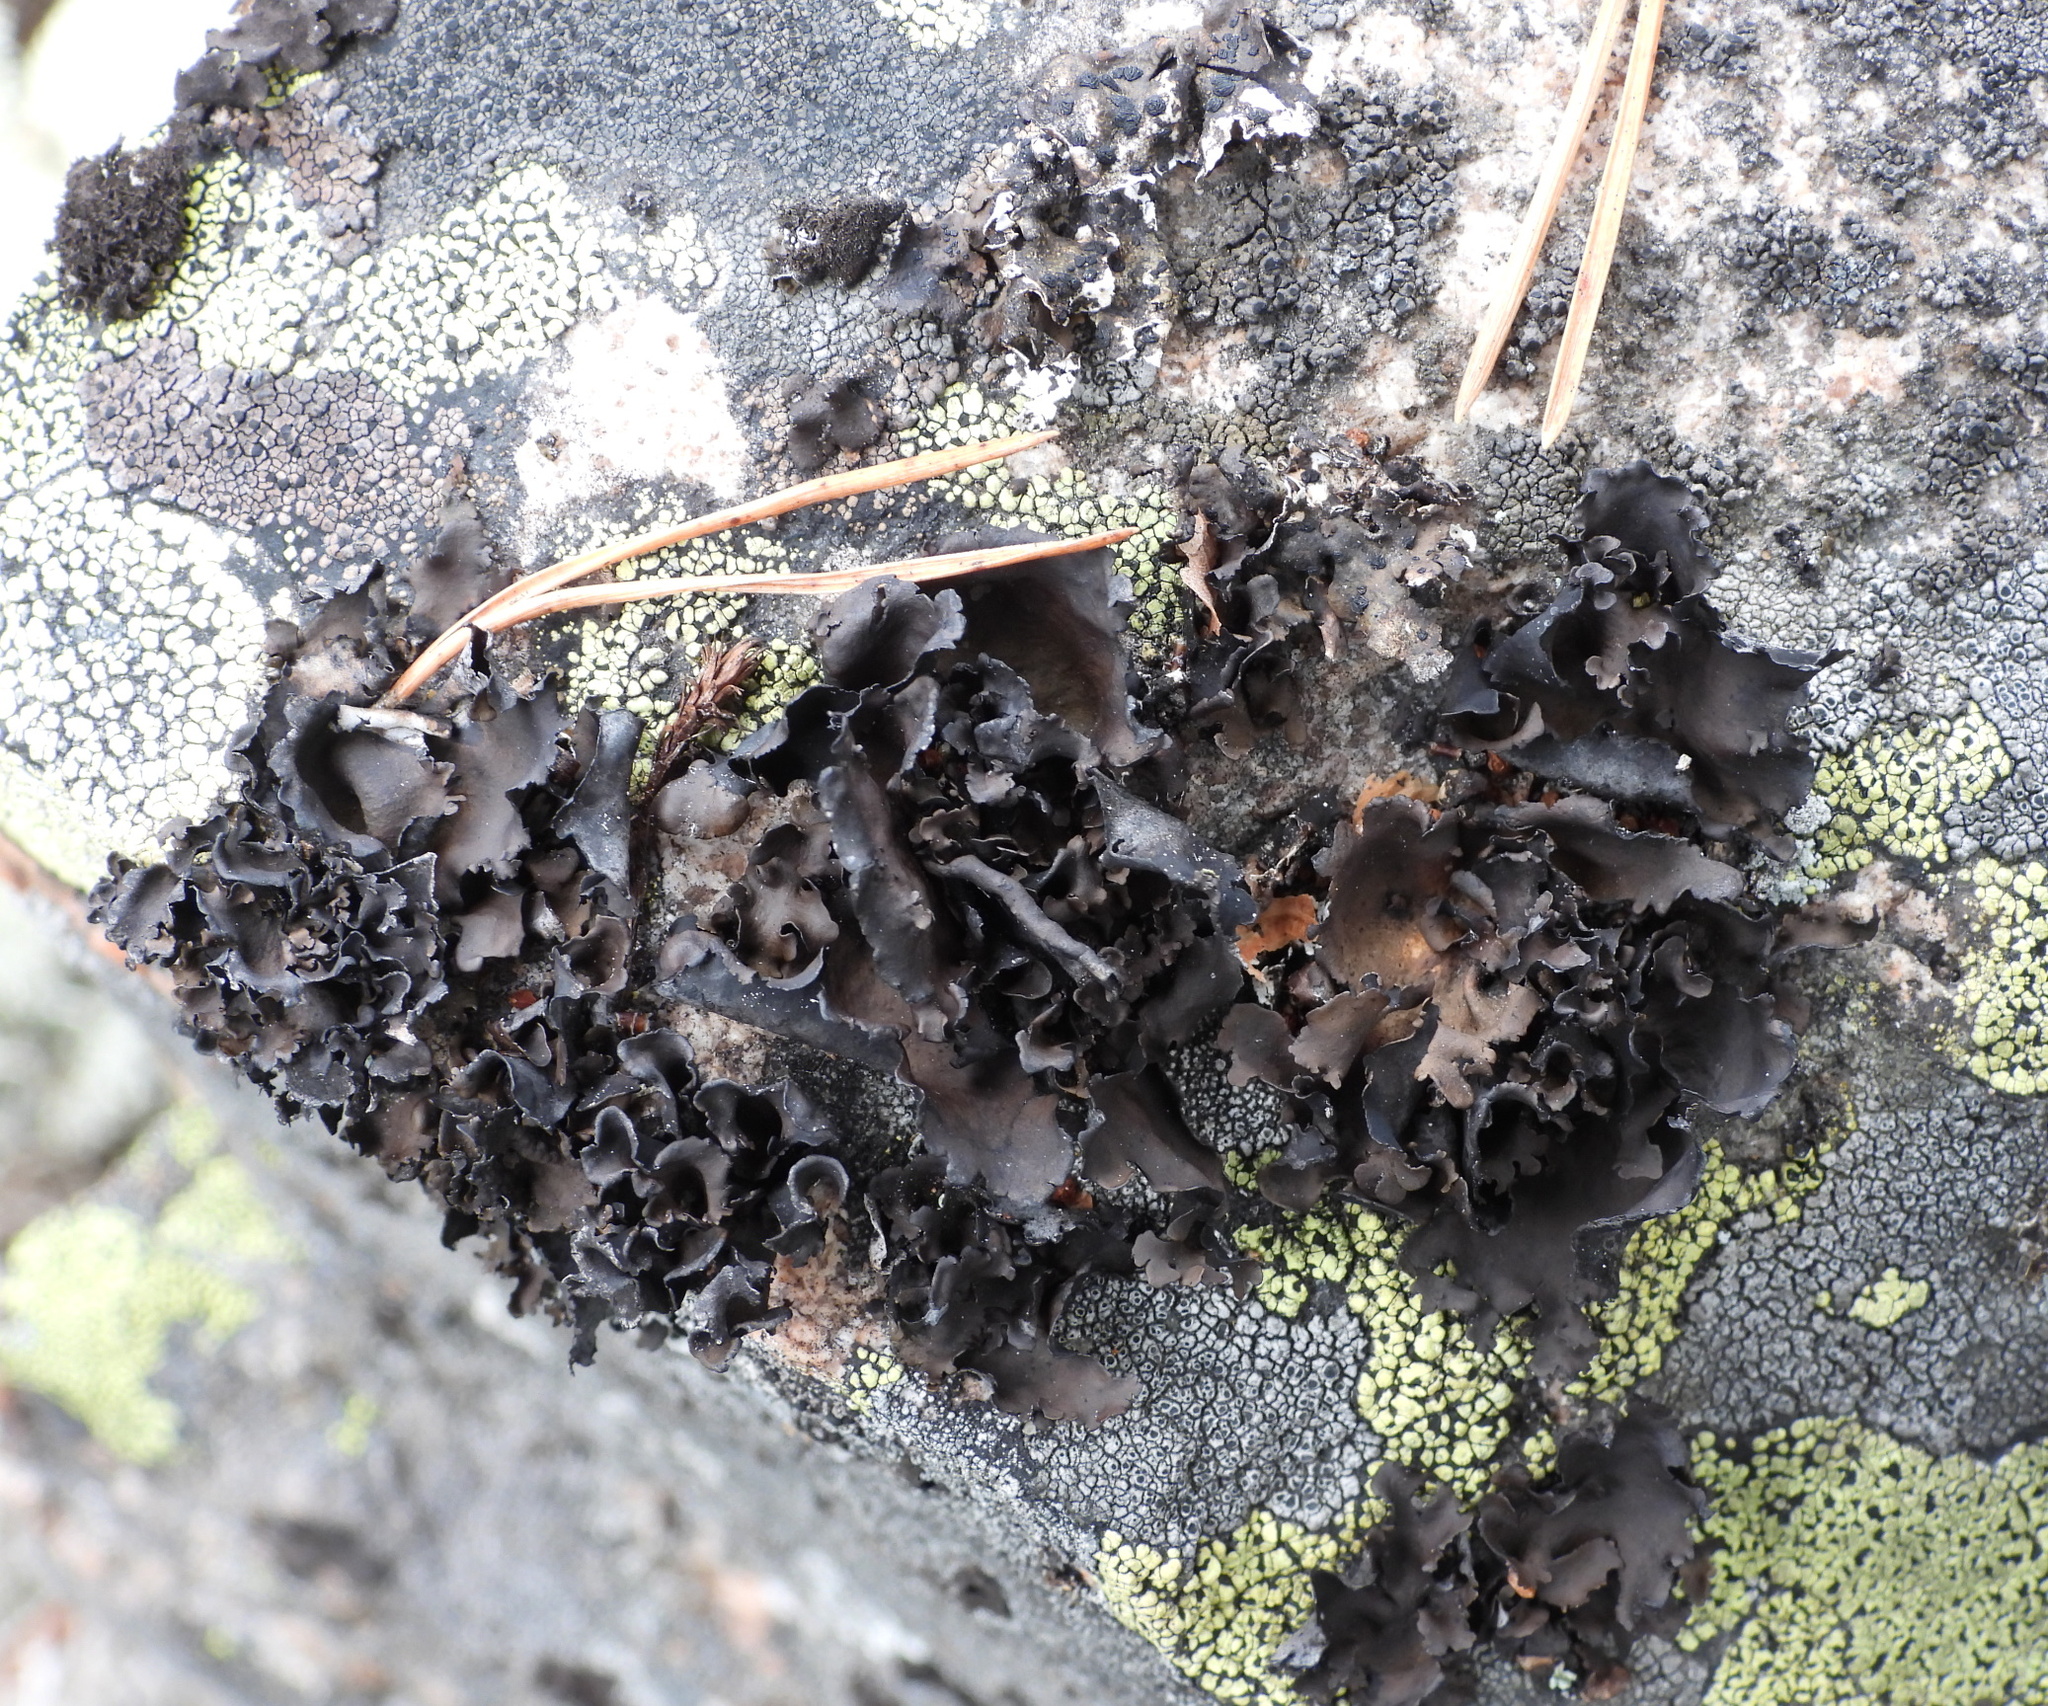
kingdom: Fungi
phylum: Ascomycota
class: Lecanoromycetes
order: Umbilicariales
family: Umbilicariaceae
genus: Umbilicaria
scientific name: Umbilicaria polyphylla
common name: Petalled rocktripe lichen
